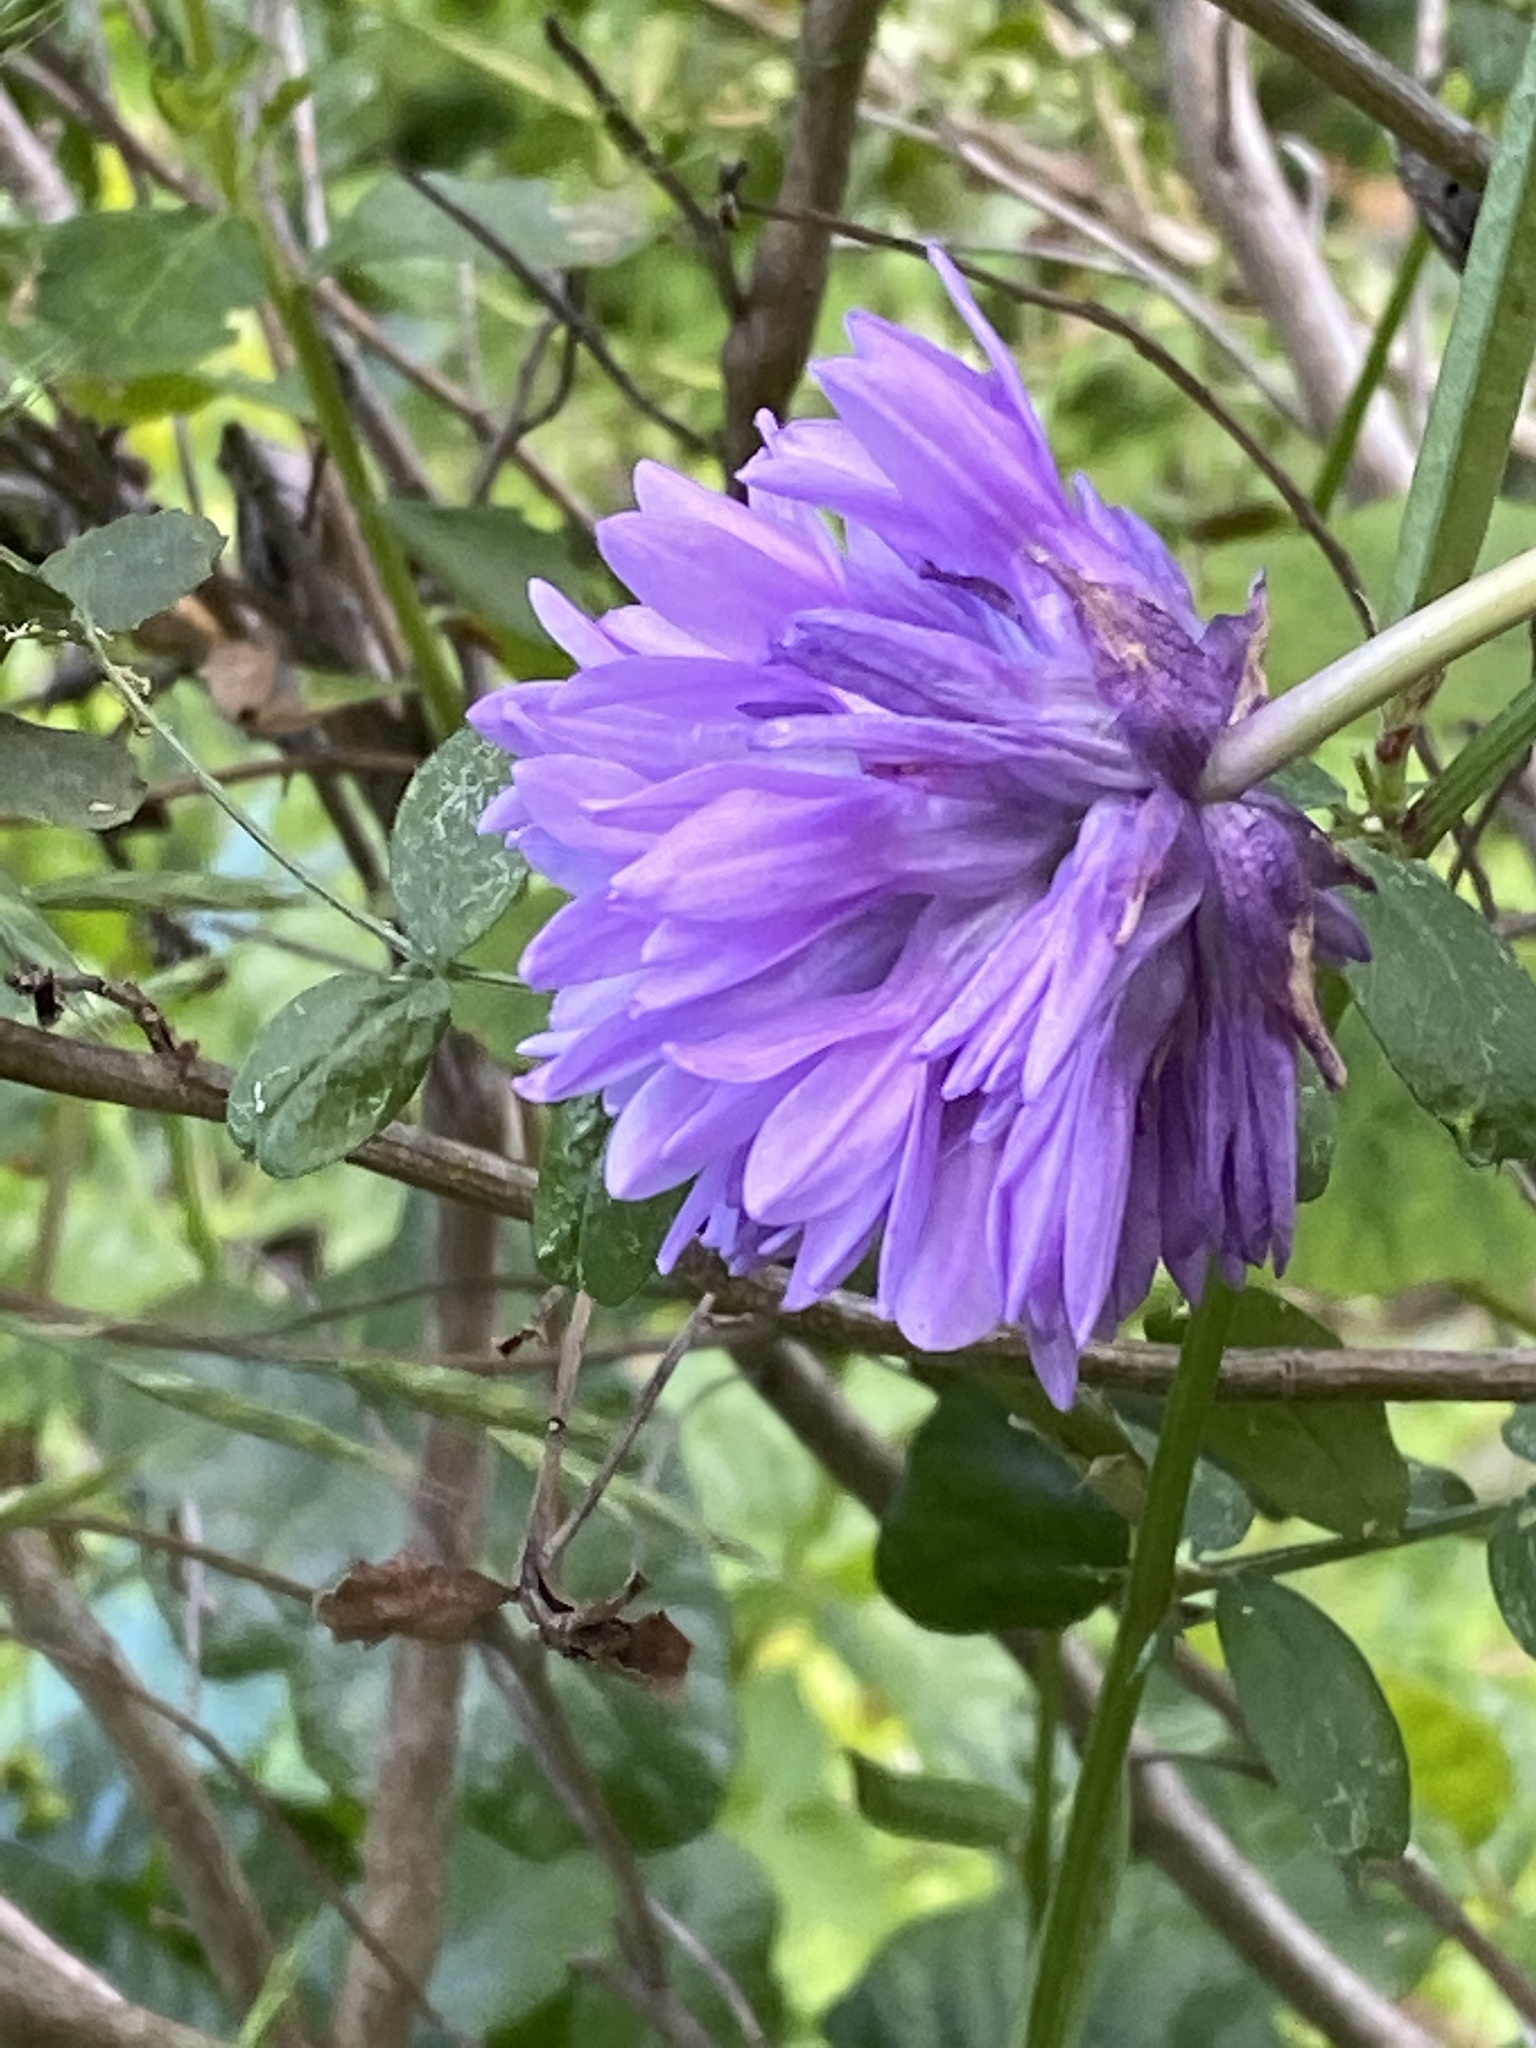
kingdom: Plantae
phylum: Tracheophyta
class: Liliopsida
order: Asparagales
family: Asparagaceae
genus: Dichelostemma
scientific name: Dichelostemma congestum
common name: Fork-tooth ookow
